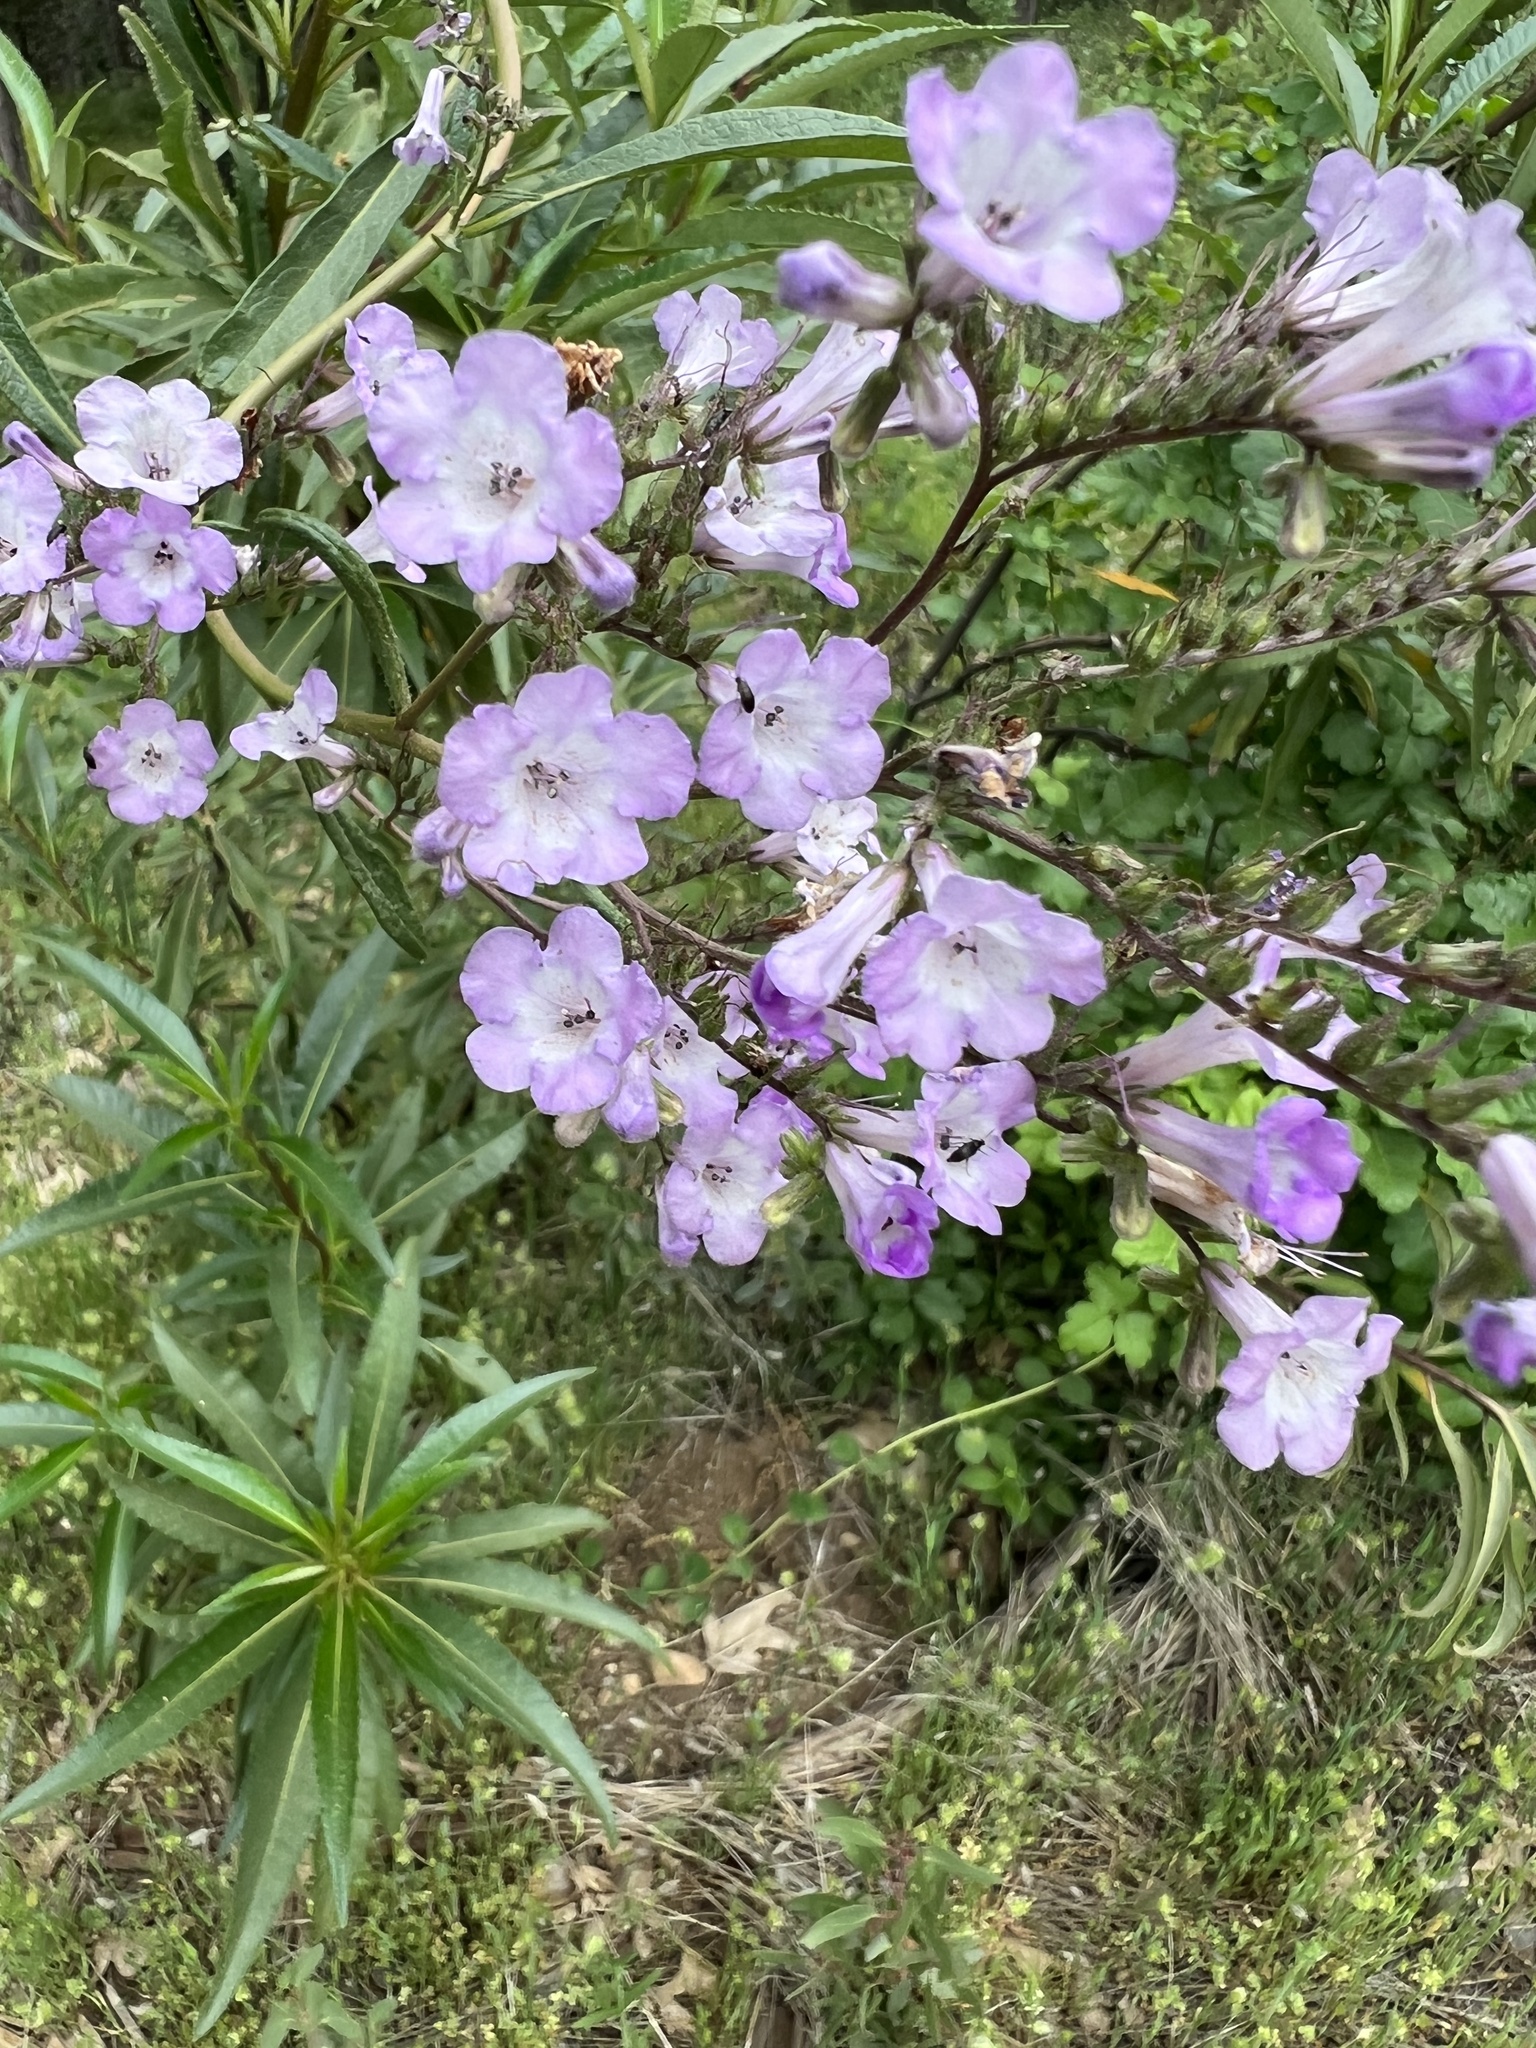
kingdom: Plantae
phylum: Tracheophyta
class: Magnoliopsida
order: Boraginales
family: Namaceae
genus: Eriodictyon
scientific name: Eriodictyon californicum
